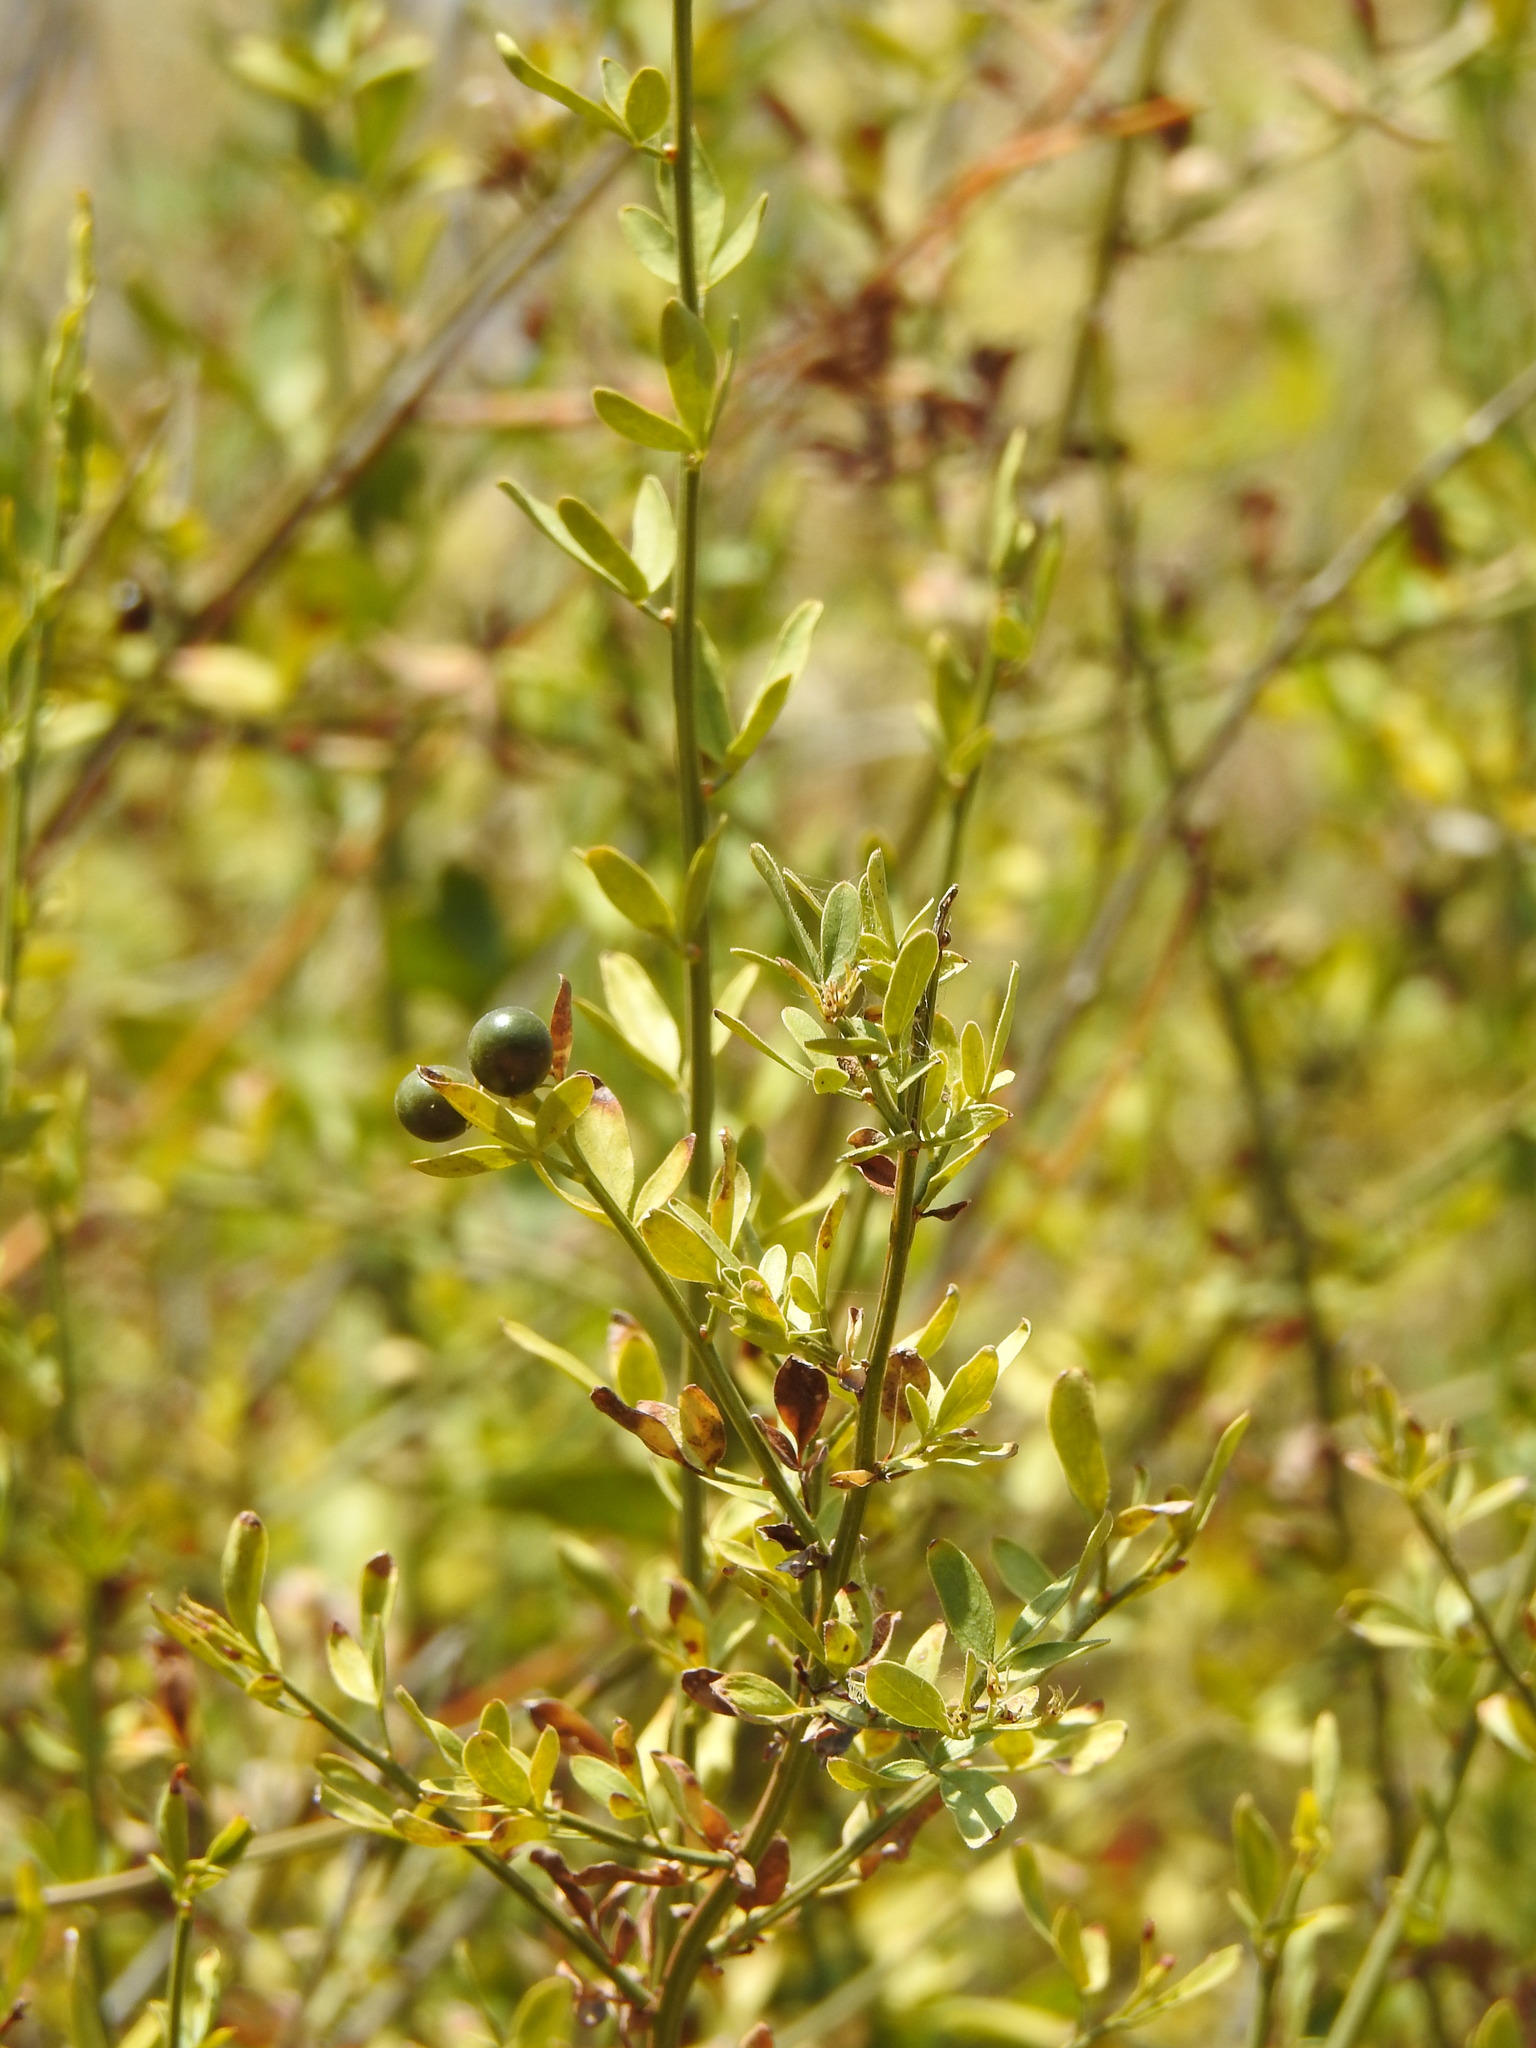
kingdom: Plantae
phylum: Tracheophyta
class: Magnoliopsida
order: Lamiales
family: Oleaceae
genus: Chrysojasminum
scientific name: Chrysojasminum fruticans
